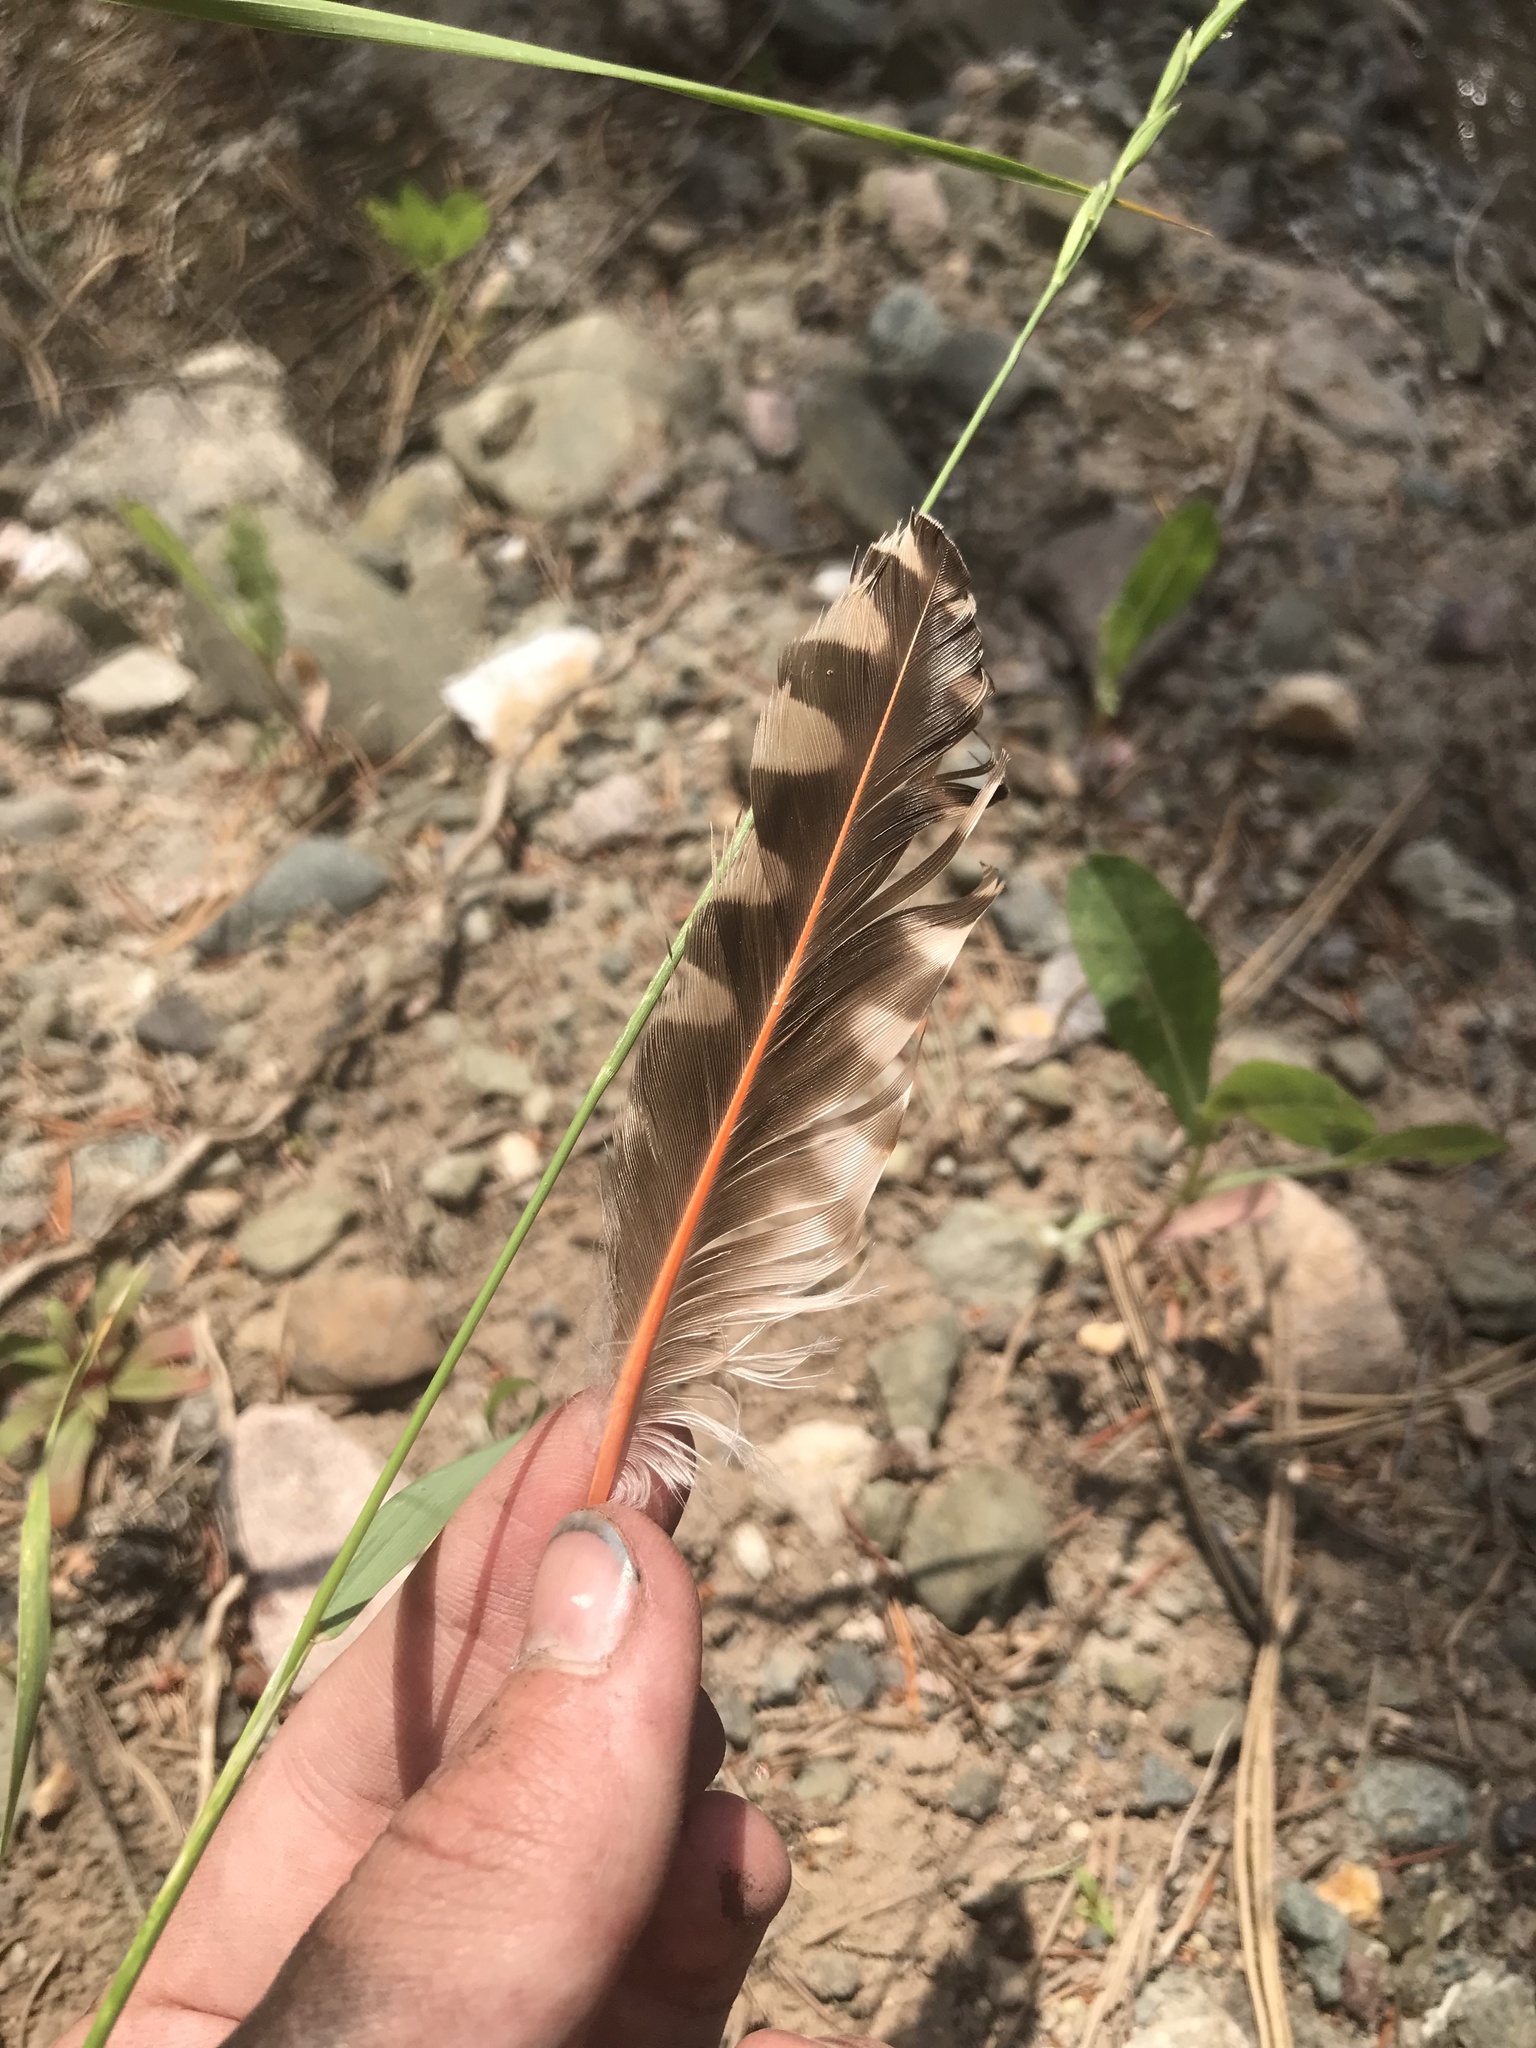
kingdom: Animalia
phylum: Chordata
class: Aves
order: Piciformes
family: Picidae
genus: Colaptes
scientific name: Colaptes auratus
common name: Northern flicker
